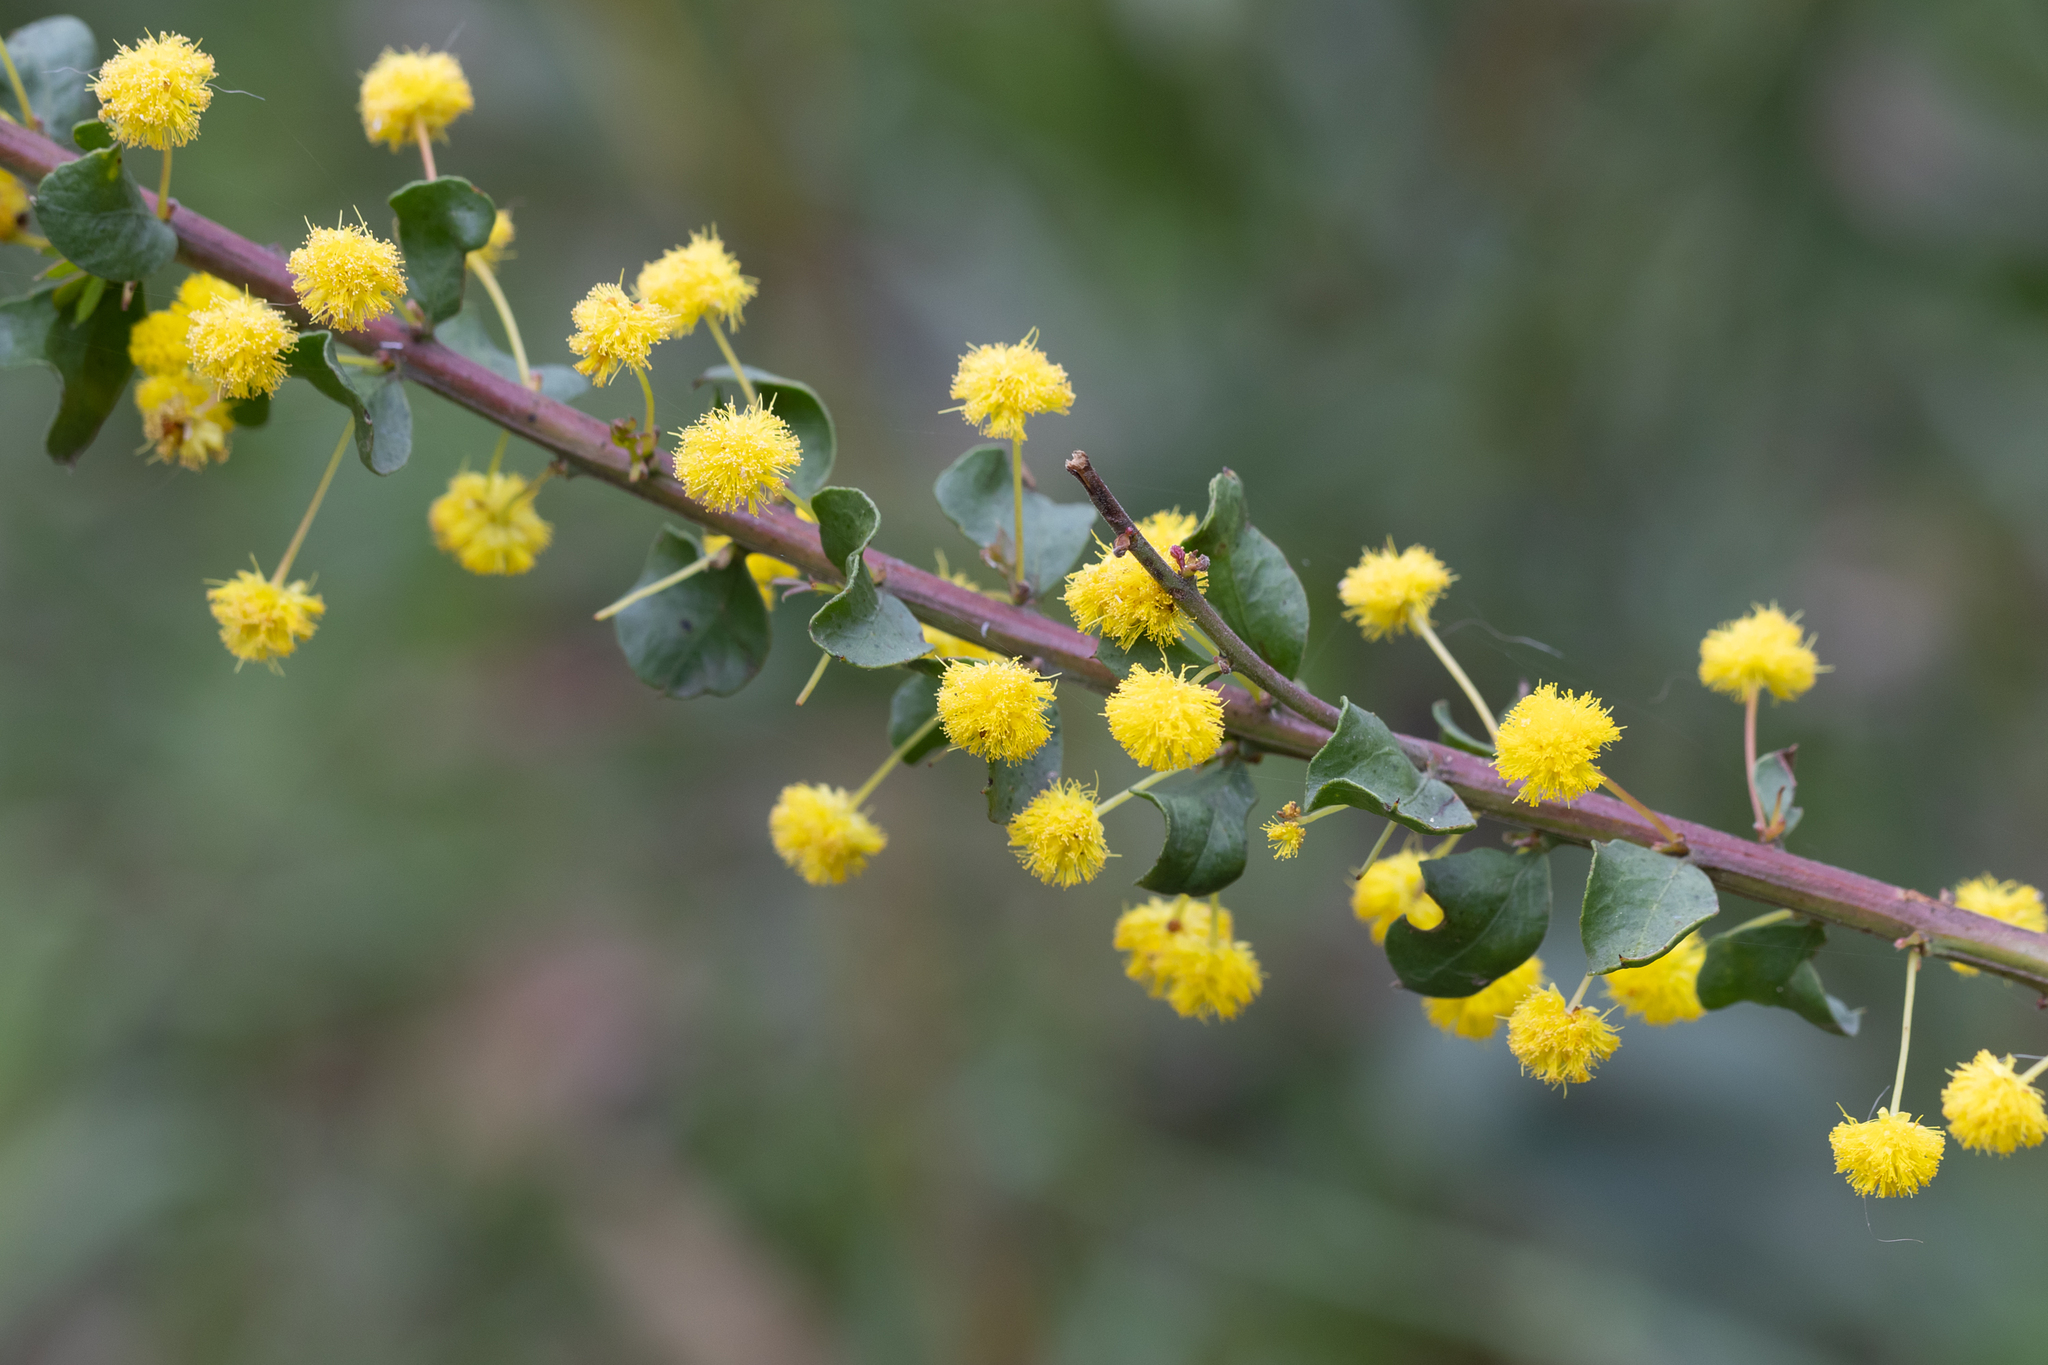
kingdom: Plantae
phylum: Tracheophyta
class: Magnoliopsida
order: Fabales
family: Fabaceae
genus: Acacia
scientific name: Acacia acinacea
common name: Gold-dust acacia
